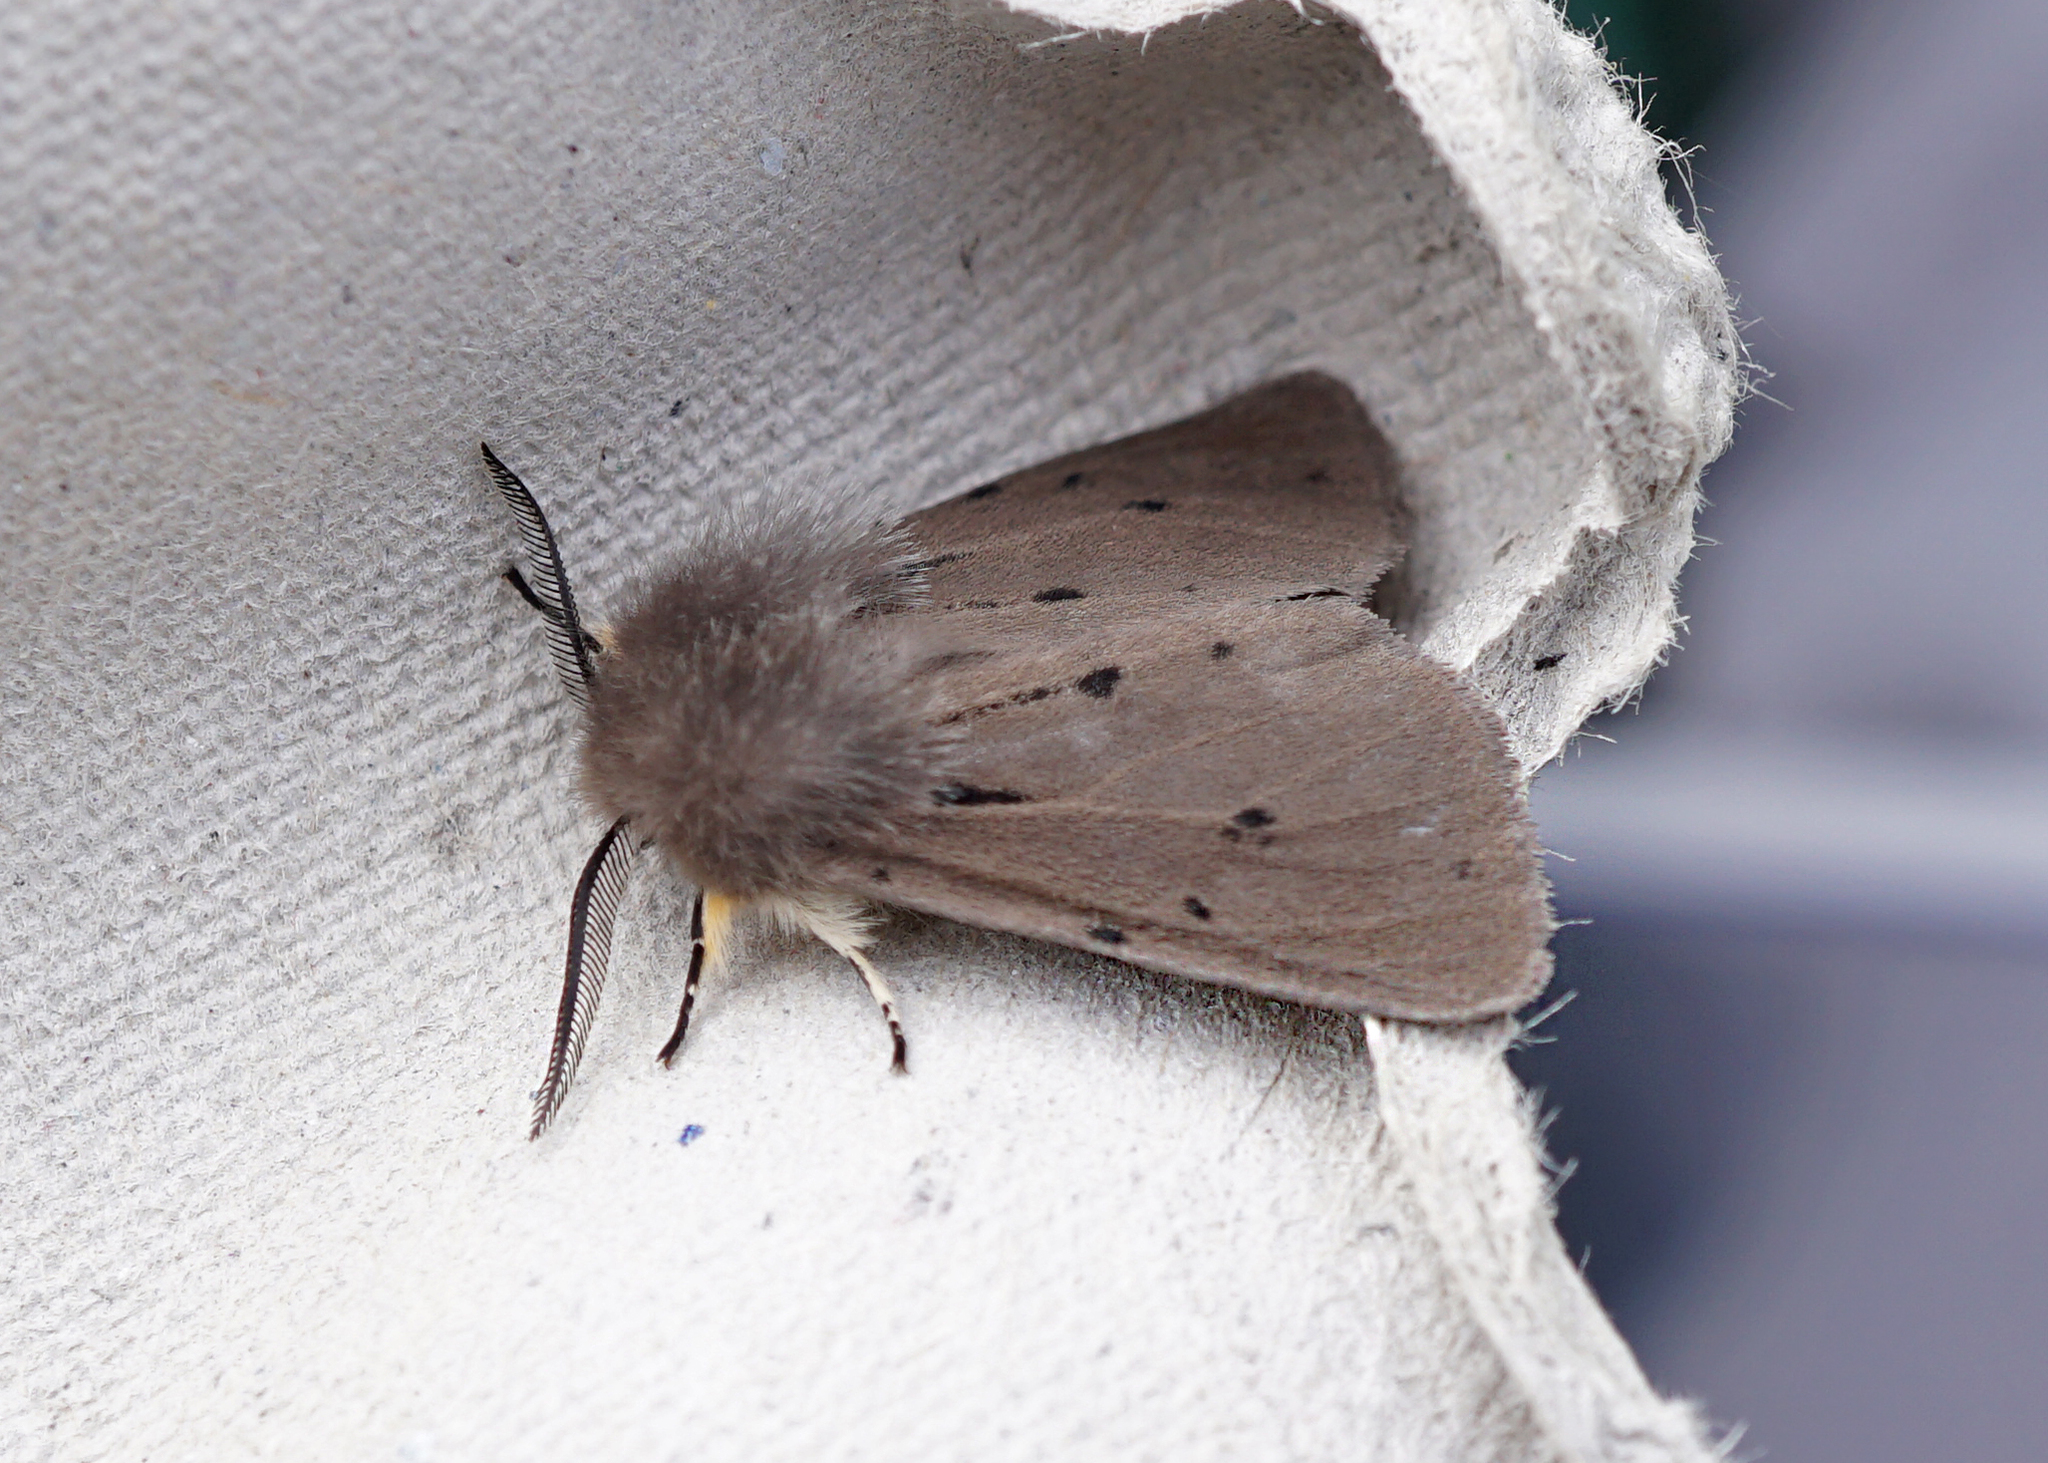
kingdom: Animalia
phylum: Arthropoda
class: Insecta
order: Lepidoptera
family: Erebidae
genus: Diaphora
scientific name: Diaphora mendica
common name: Muslin moth
